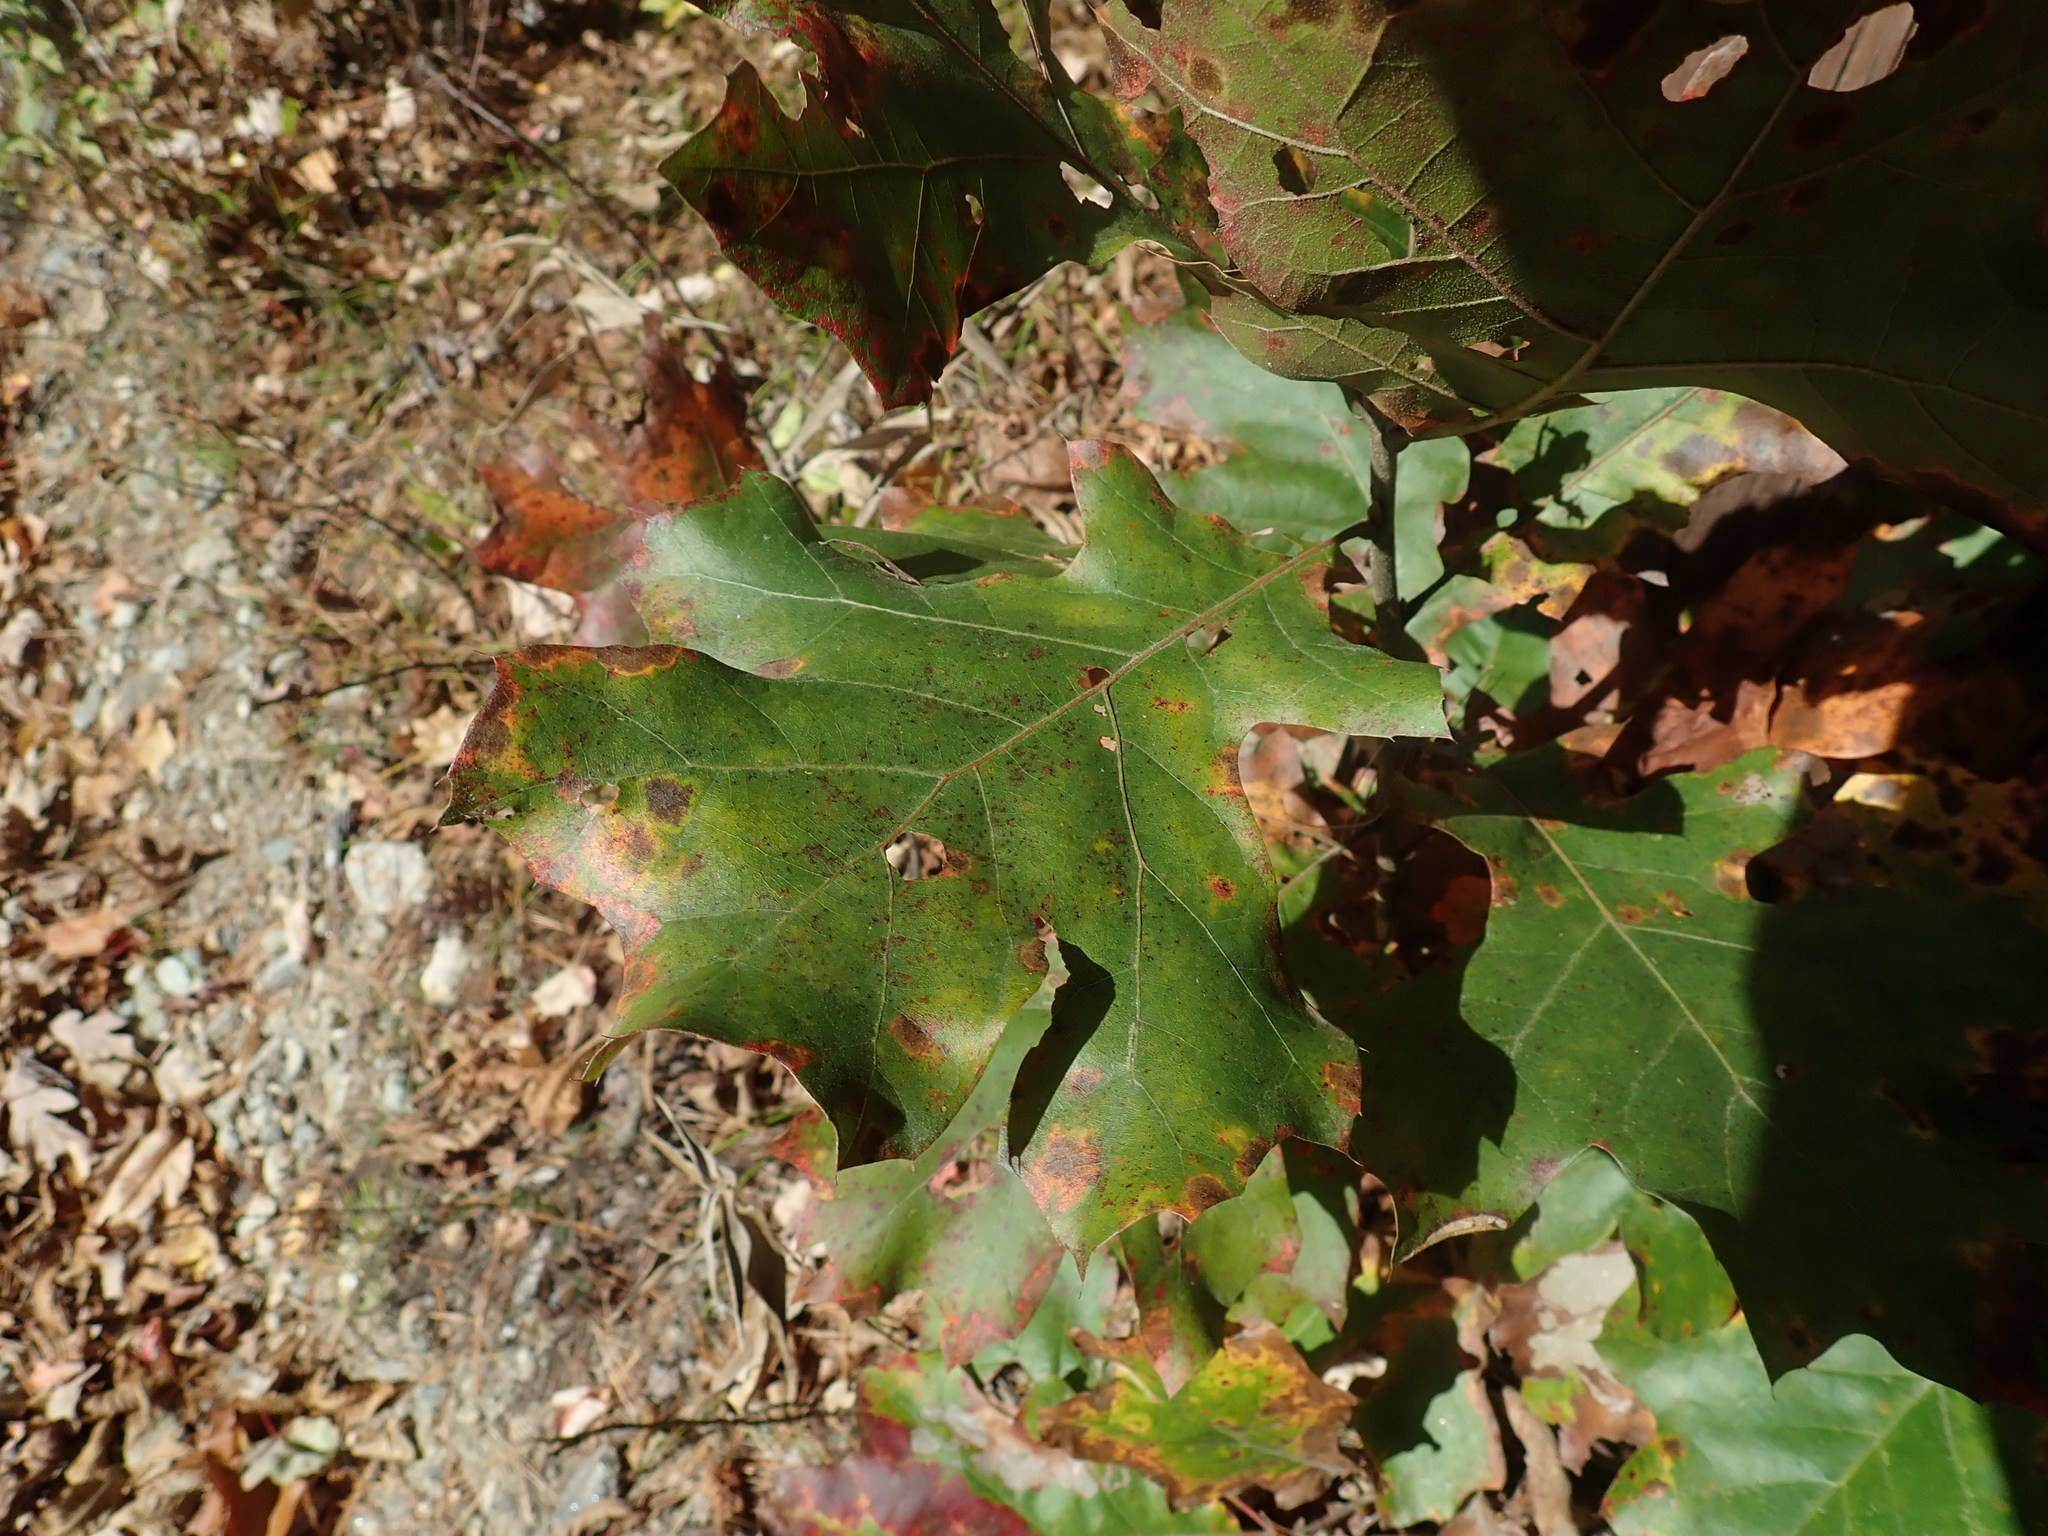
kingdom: Plantae
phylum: Tracheophyta
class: Magnoliopsida
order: Fagales
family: Fagaceae
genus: Quercus
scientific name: Quercus velutina
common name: Black oak
